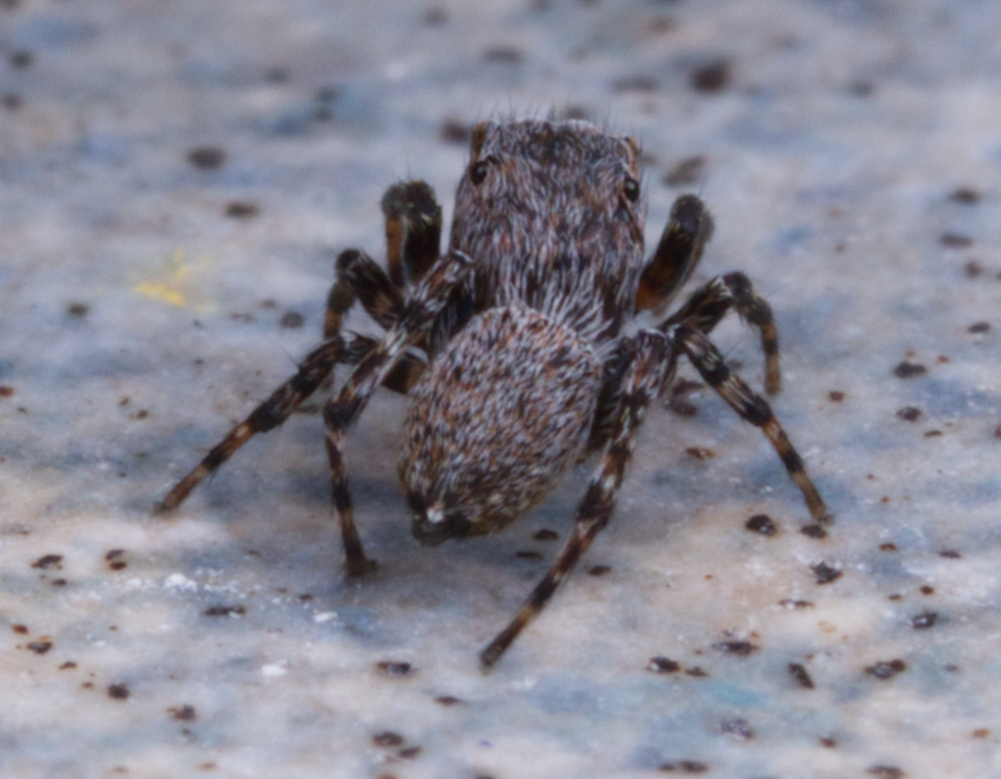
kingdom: Animalia
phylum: Arthropoda
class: Arachnida
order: Araneae
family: Salticidae
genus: Attinella
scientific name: Attinella concolor
